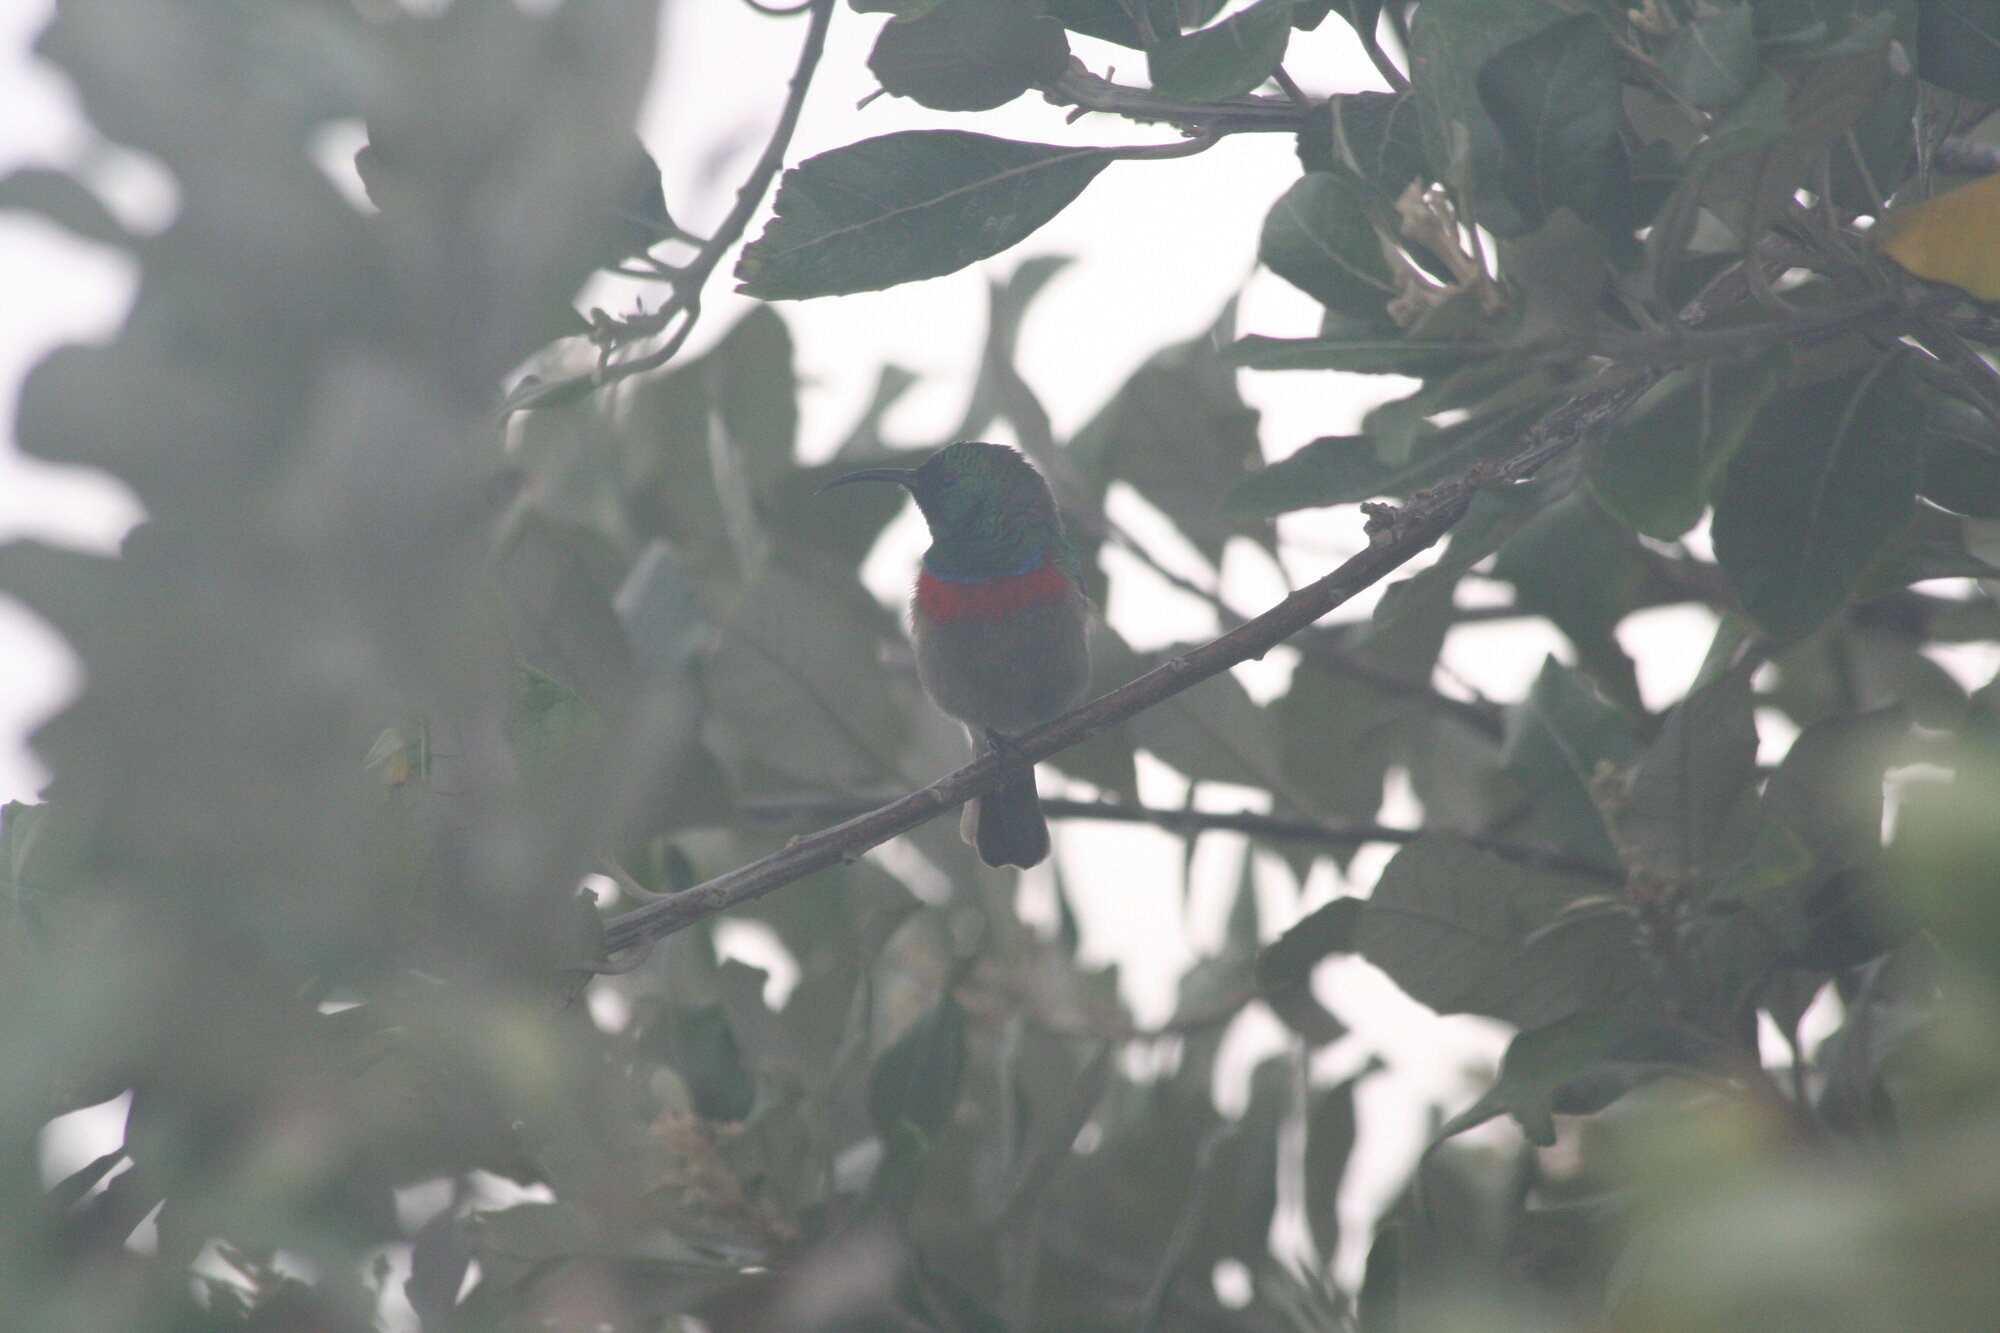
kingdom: Animalia
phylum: Chordata
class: Aves
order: Passeriformes
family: Nectariniidae
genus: Cinnyris
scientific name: Cinnyris chalybeus
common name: Southern double-collared sunbird
